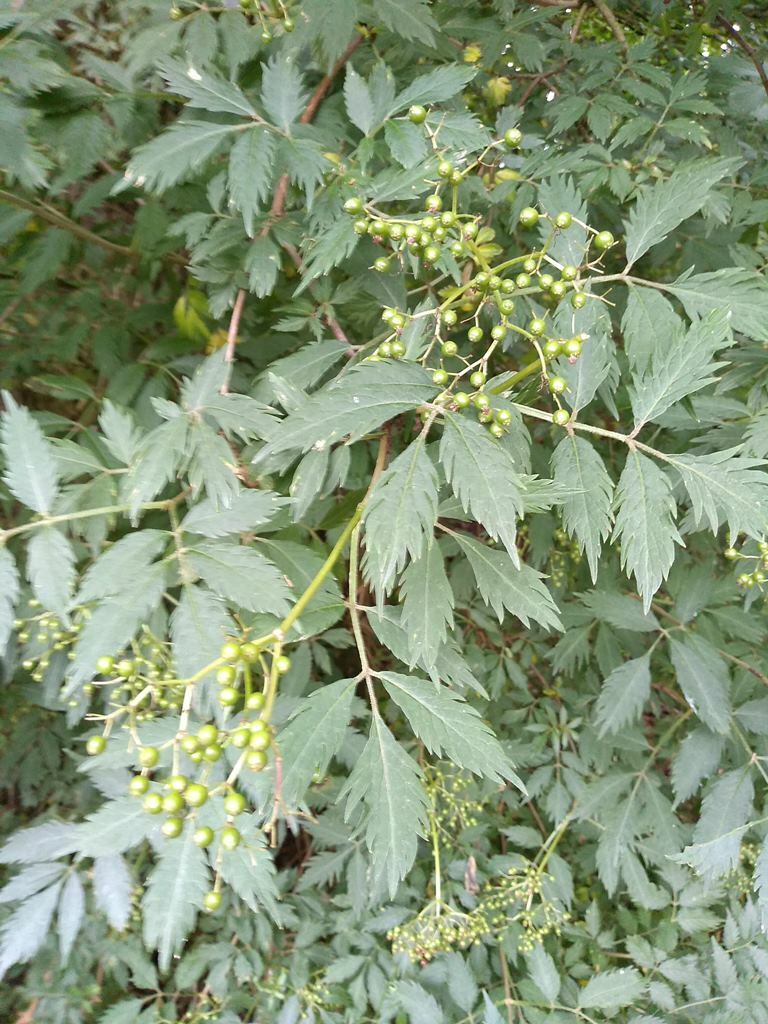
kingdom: Plantae
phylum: Tracheophyta
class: Magnoliopsida
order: Dipsacales
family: Viburnaceae
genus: Sambucus
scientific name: Sambucus nigra
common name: Elder
